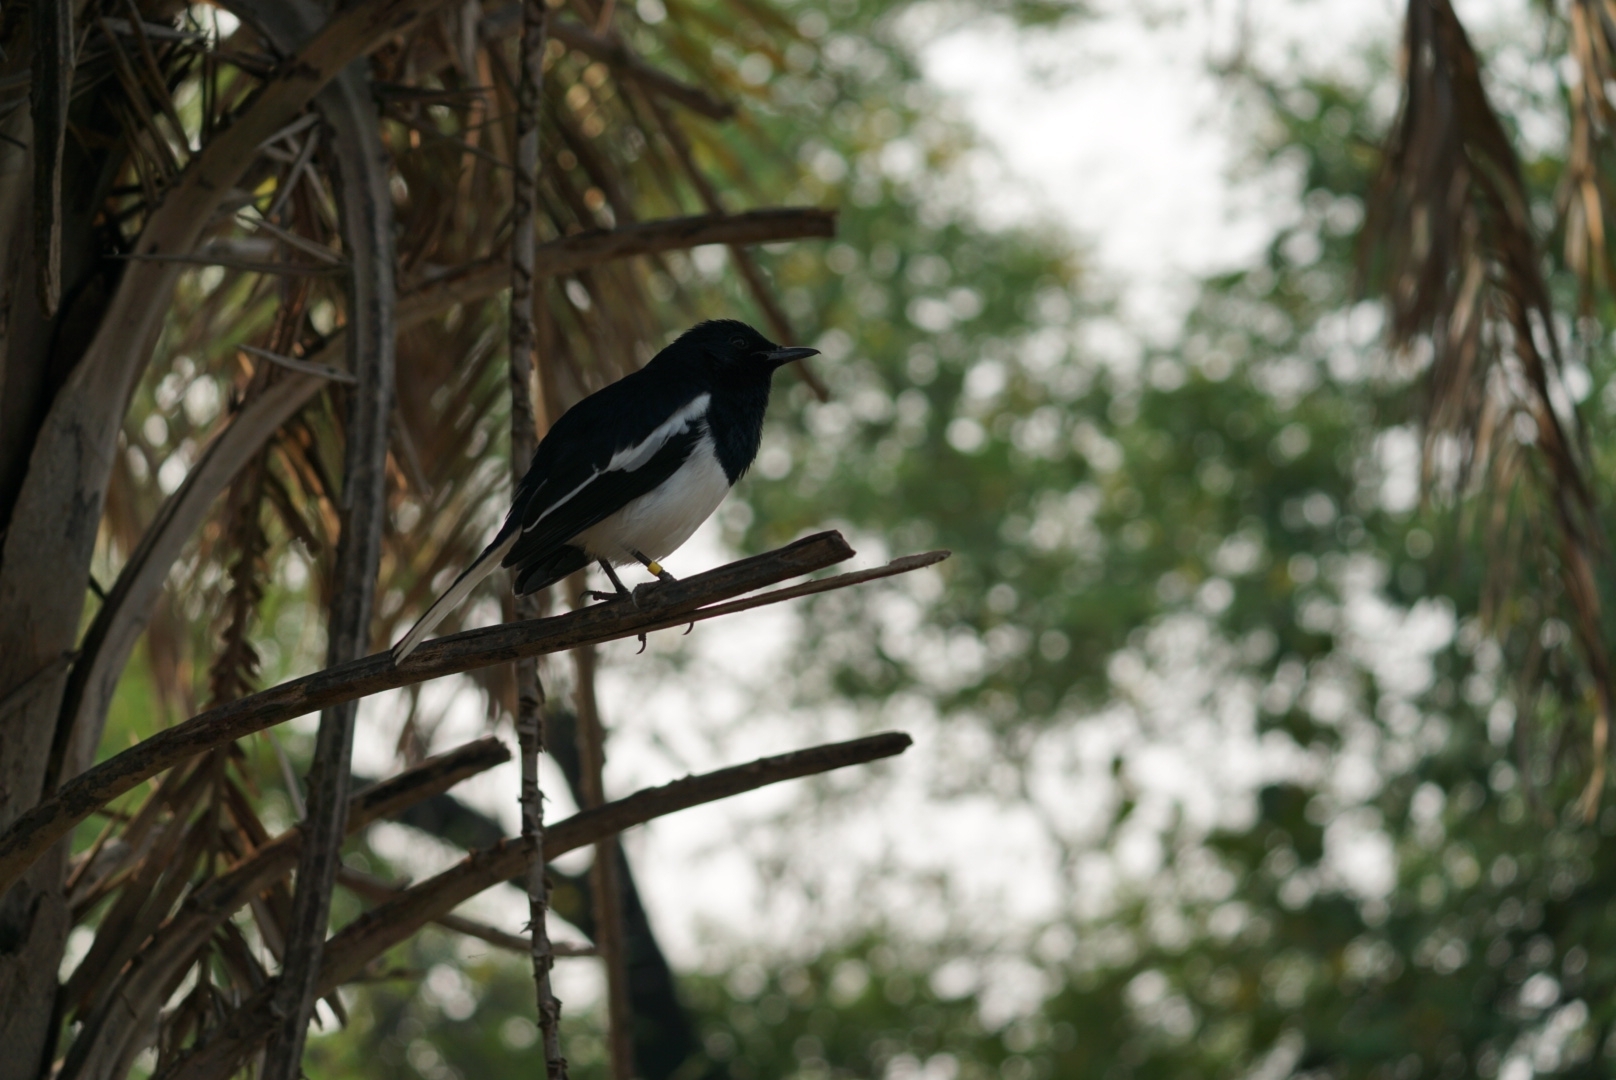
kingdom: Animalia
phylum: Chordata
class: Aves
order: Passeriformes
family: Muscicapidae
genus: Copsychus
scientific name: Copsychus saularis
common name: Oriental magpie-robin
